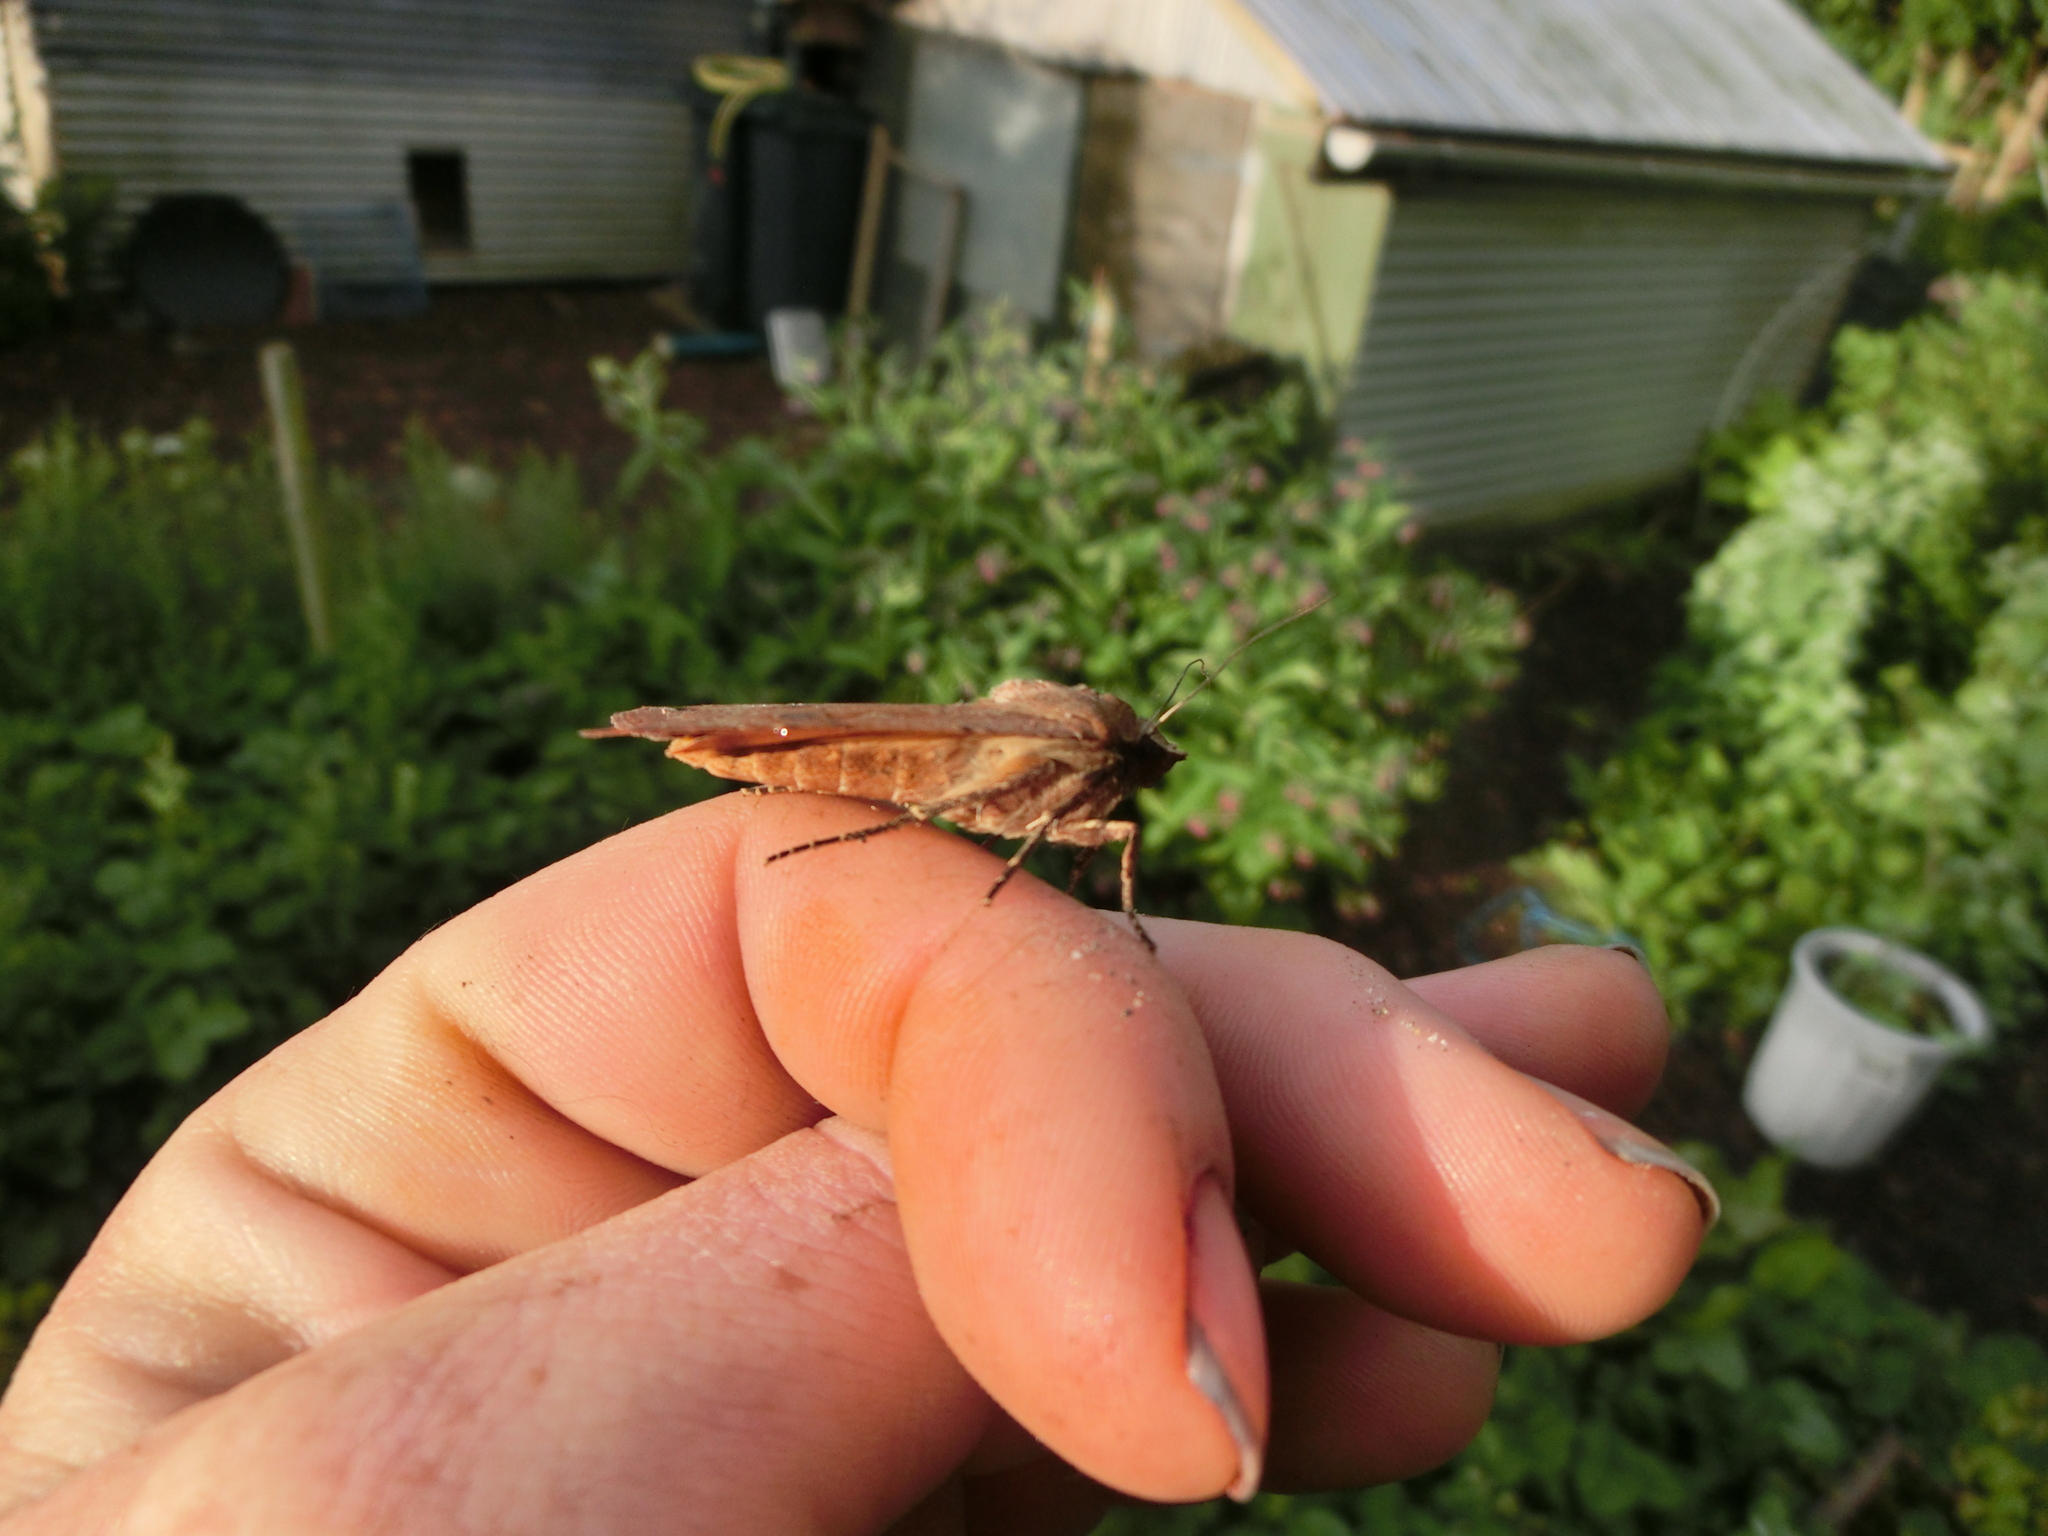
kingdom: Animalia
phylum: Arthropoda
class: Insecta
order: Lepidoptera
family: Noctuidae
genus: Noctua
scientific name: Noctua pronuba
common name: Large yellow underwing
